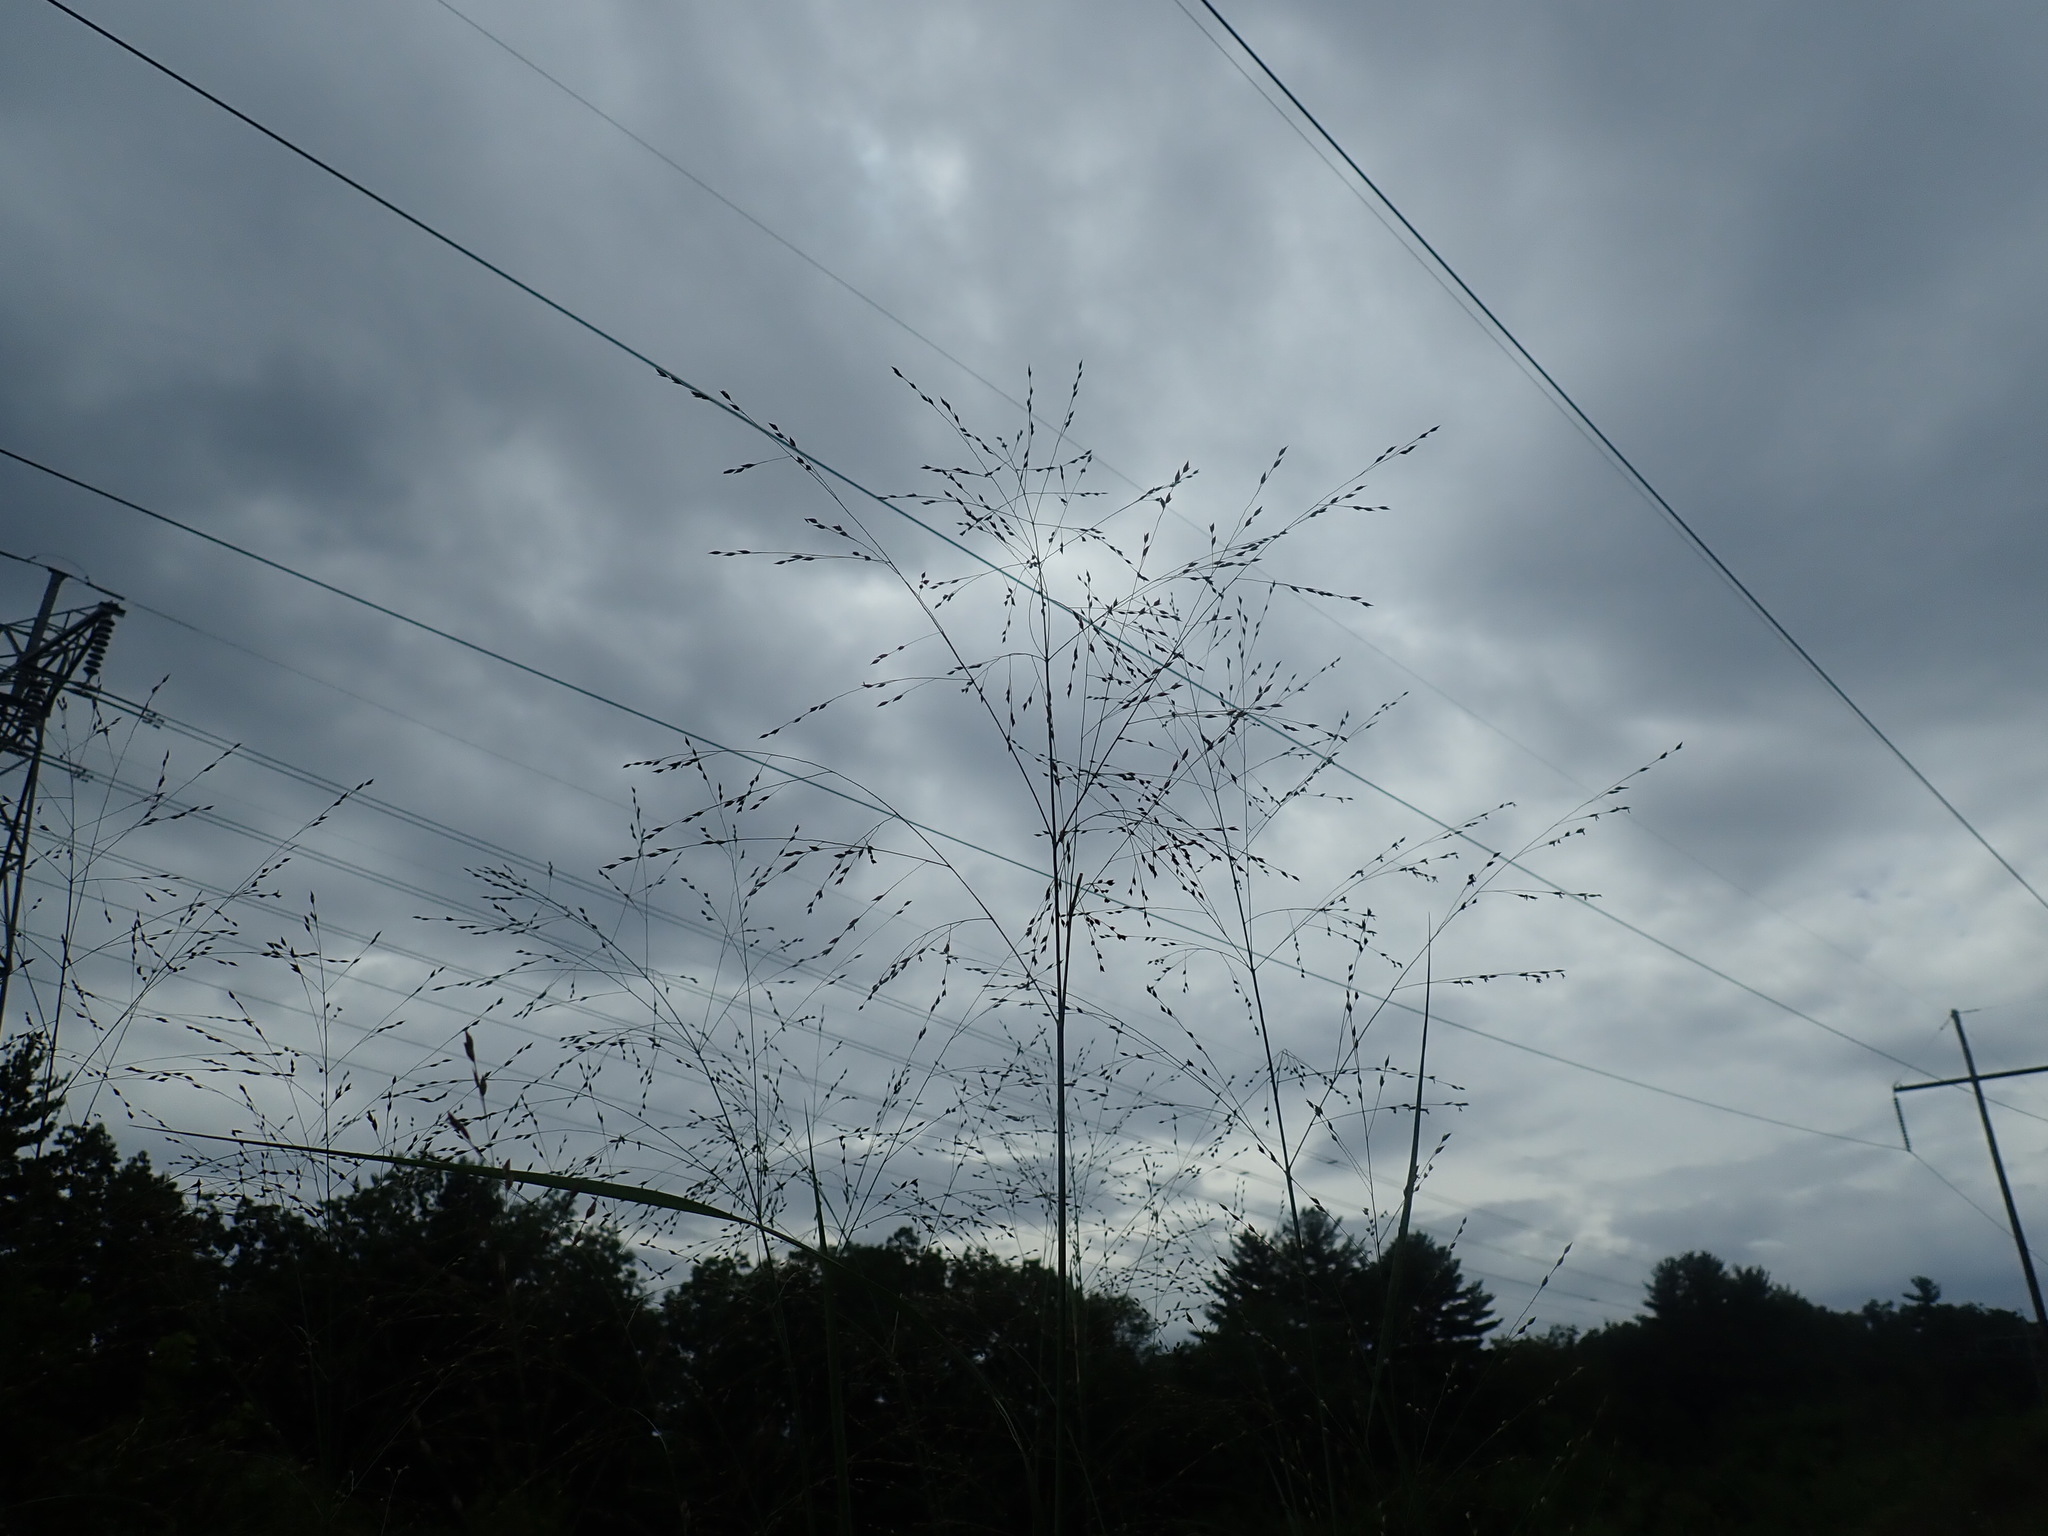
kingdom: Plantae
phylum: Tracheophyta
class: Liliopsida
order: Poales
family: Poaceae
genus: Panicum
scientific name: Panicum virgatum
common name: Switchgrass
